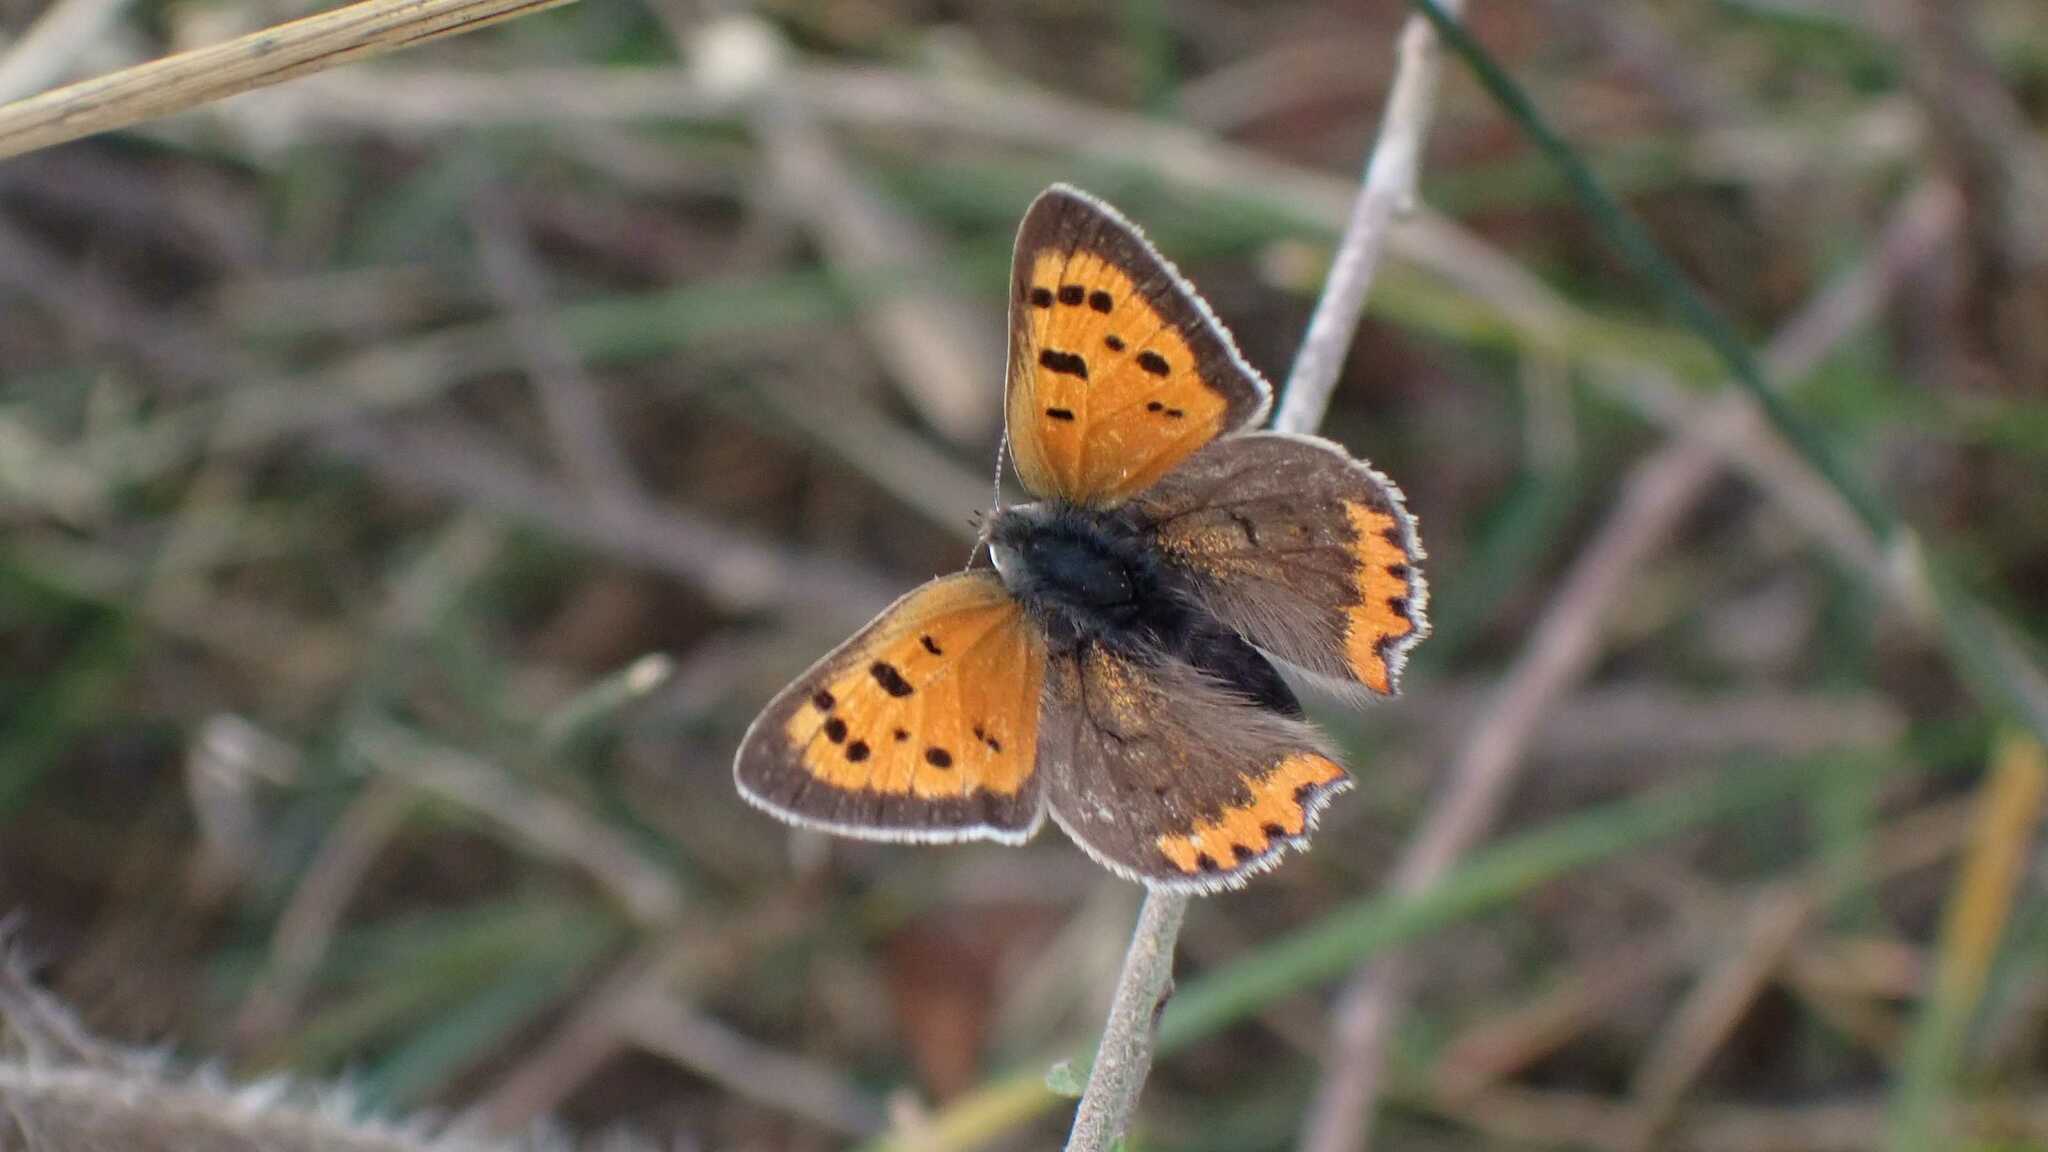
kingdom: Animalia
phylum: Arthropoda
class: Insecta
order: Lepidoptera
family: Lycaenidae
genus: Lycaena
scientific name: Lycaena phlaeas
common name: Small copper
